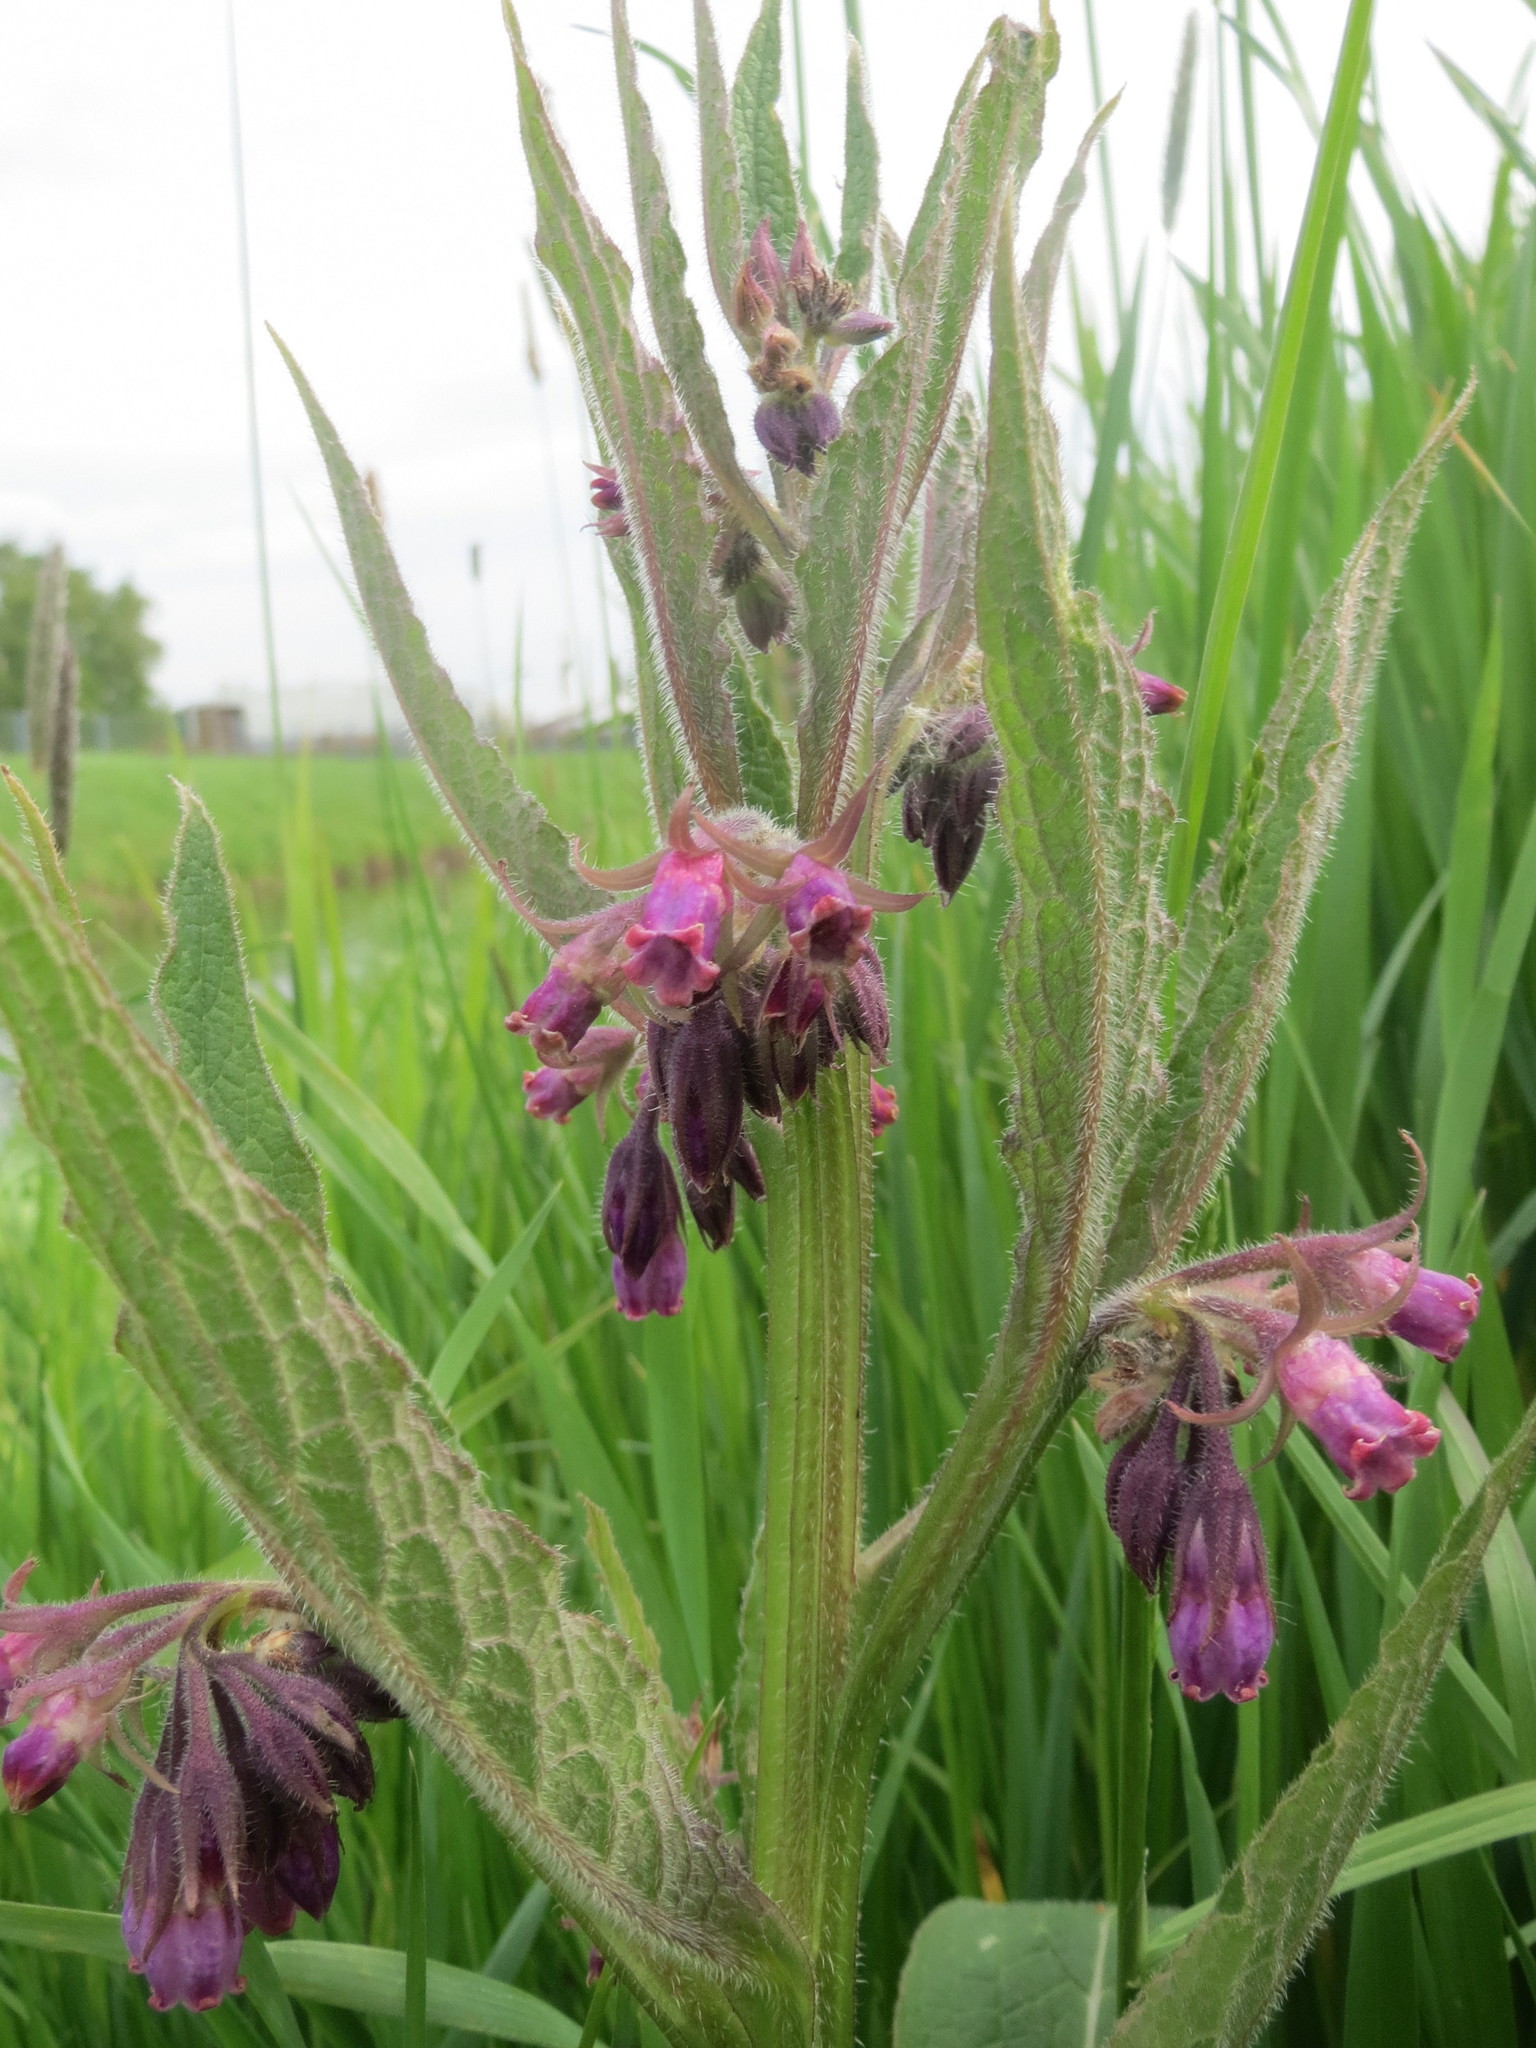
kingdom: Plantae
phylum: Tracheophyta
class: Magnoliopsida
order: Boraginales
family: Boraginaceae
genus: Symphytum
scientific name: Symphytum officinale
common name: Common comfrey
